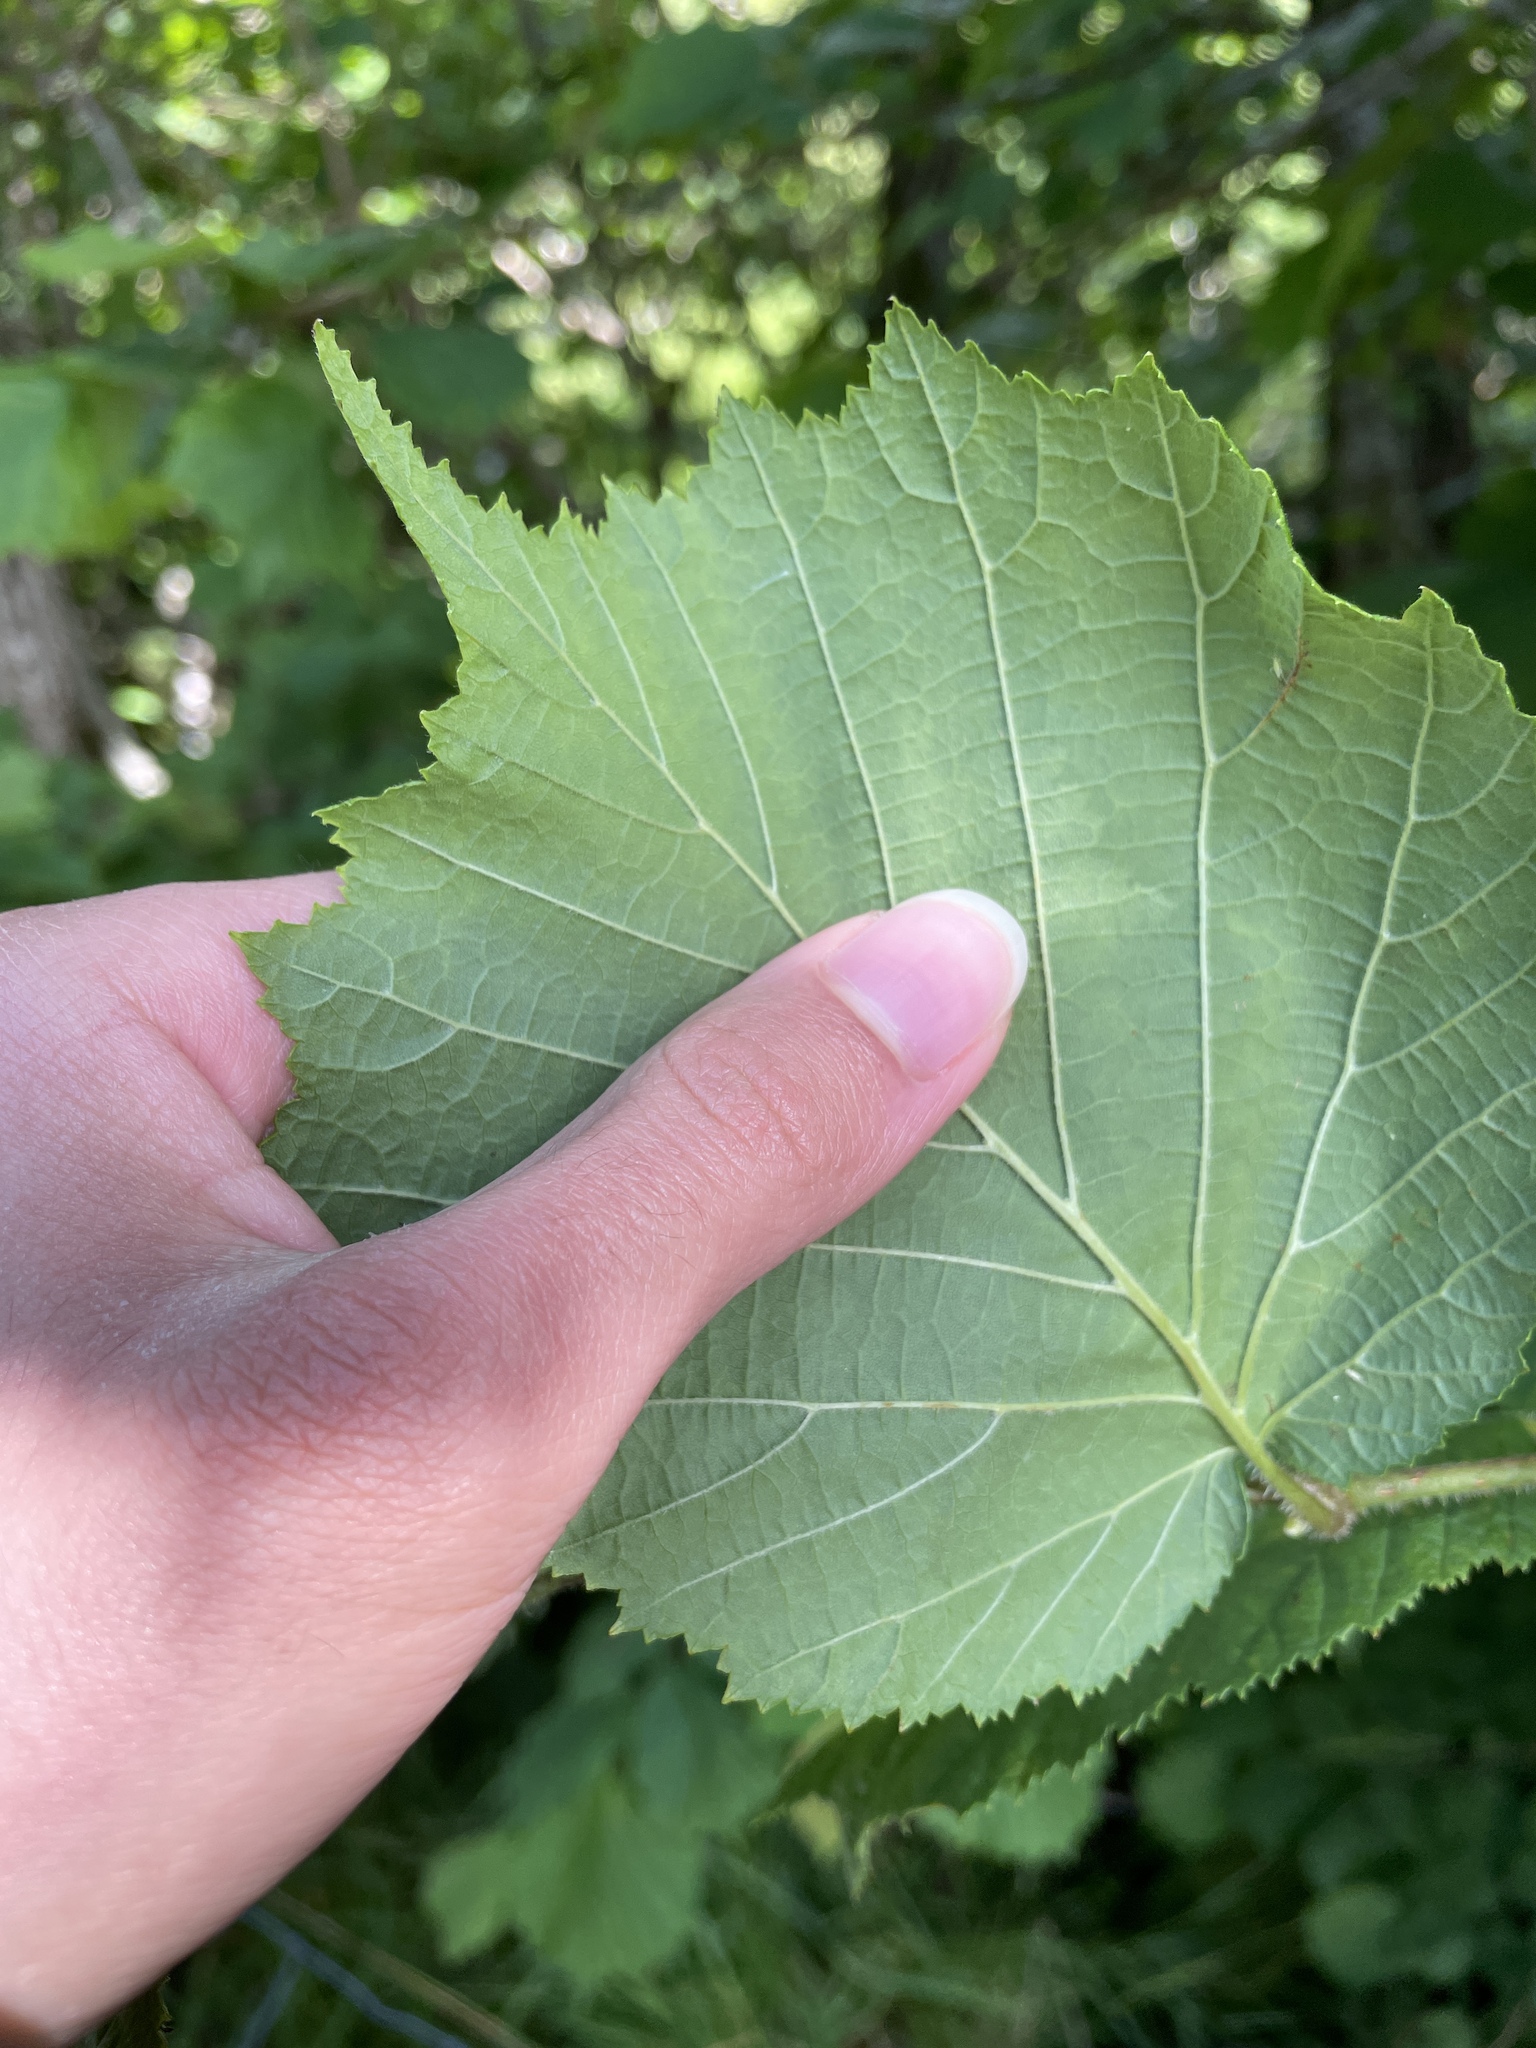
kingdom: Plantae
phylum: Tracheophyta
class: Magnoliopsida
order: Fagales
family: Betulaceae
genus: Corylus
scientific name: Corylus avellana
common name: European hazel
